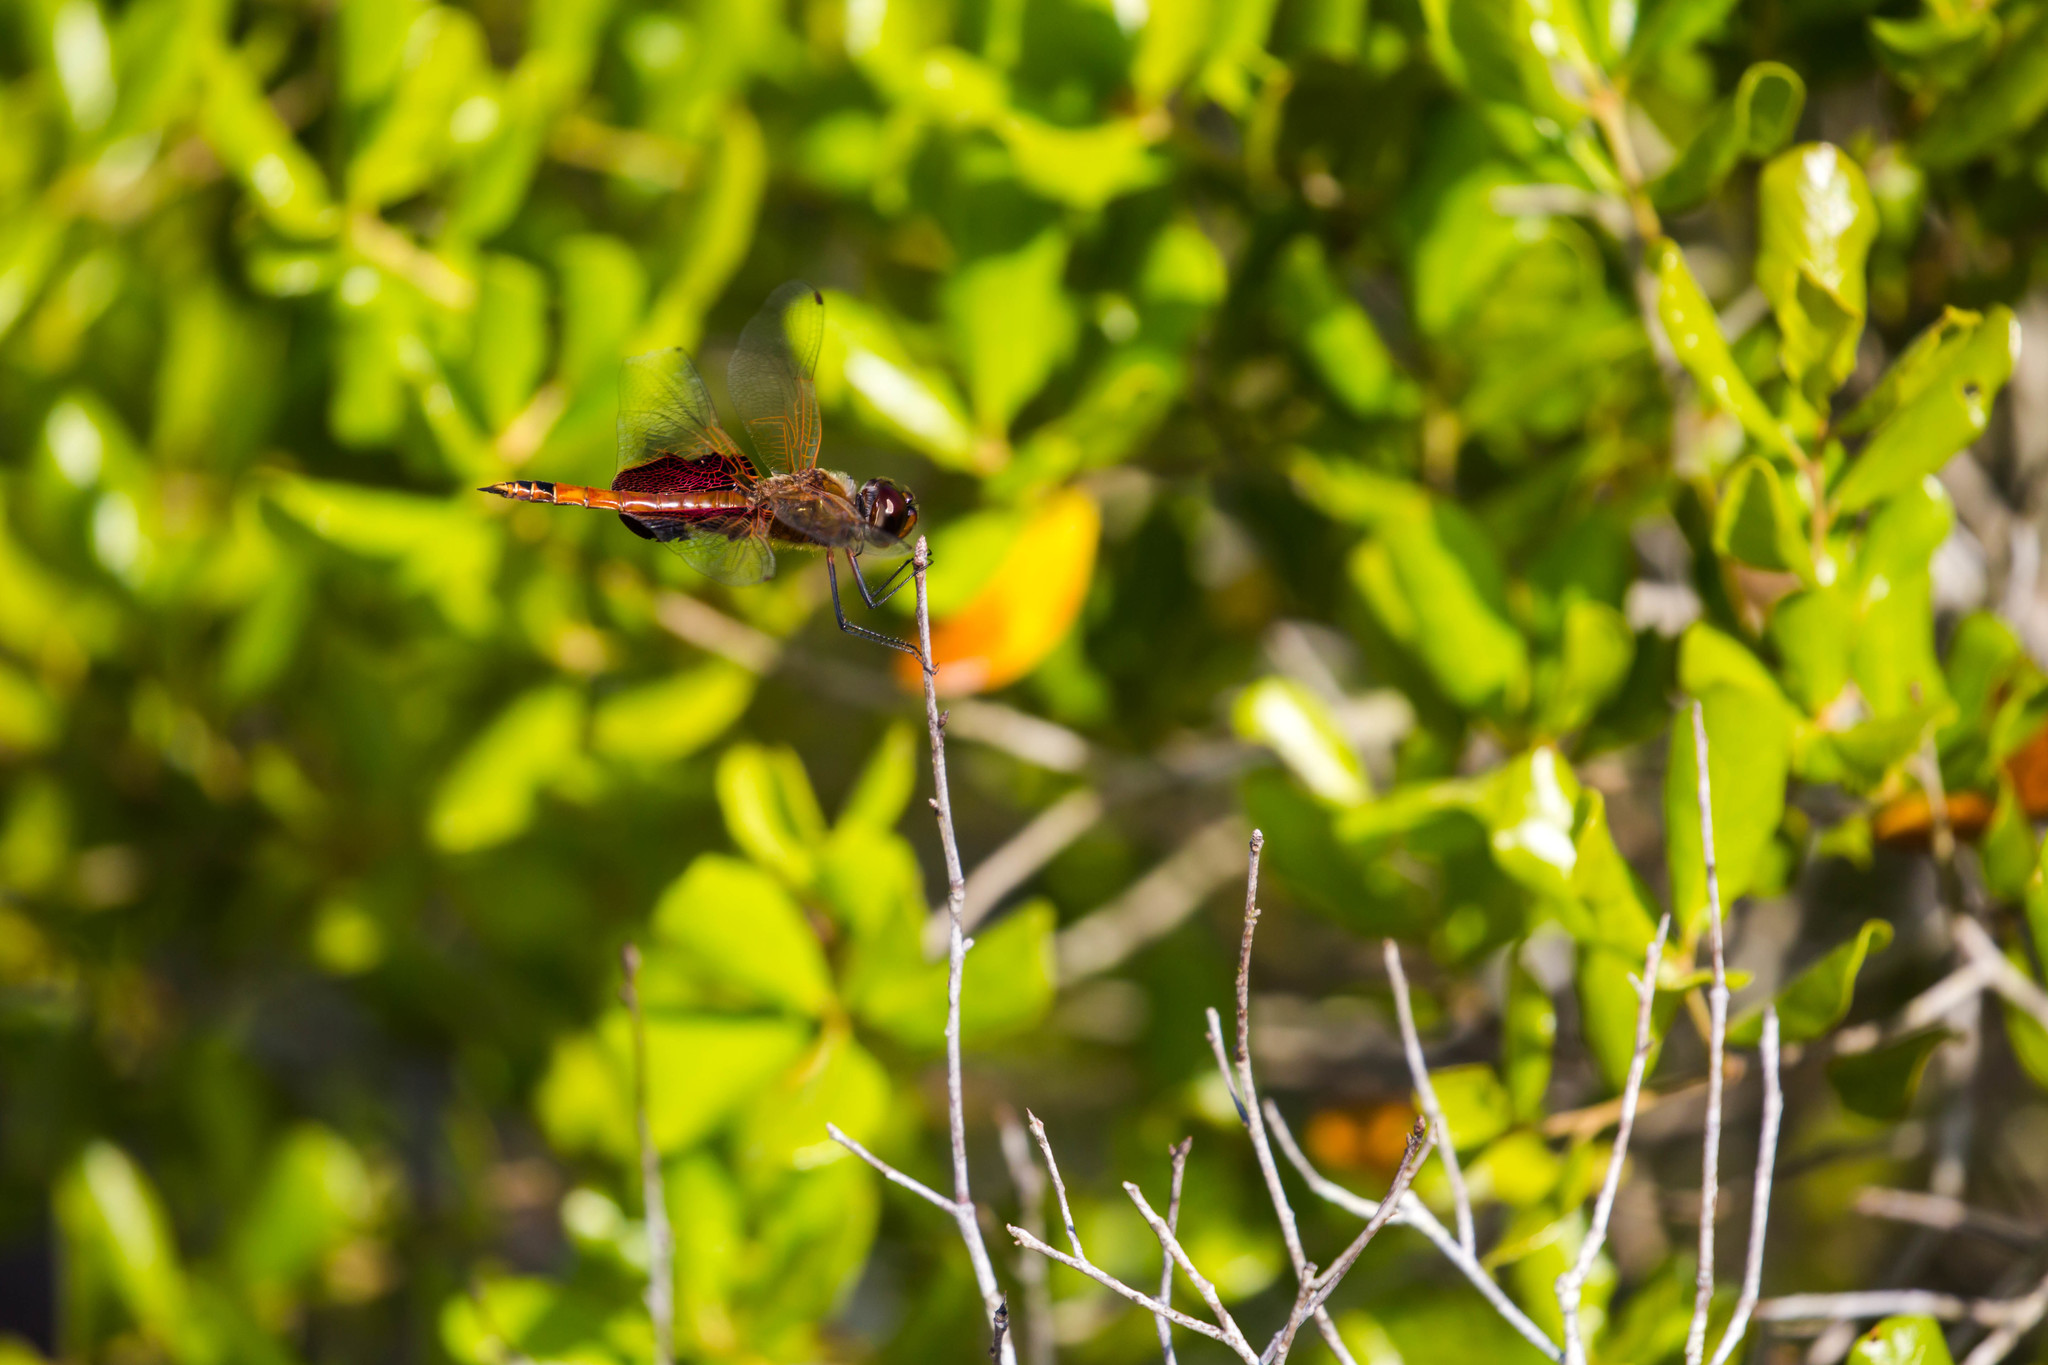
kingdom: Animalia
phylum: Arthropoda
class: Insecta
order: Odonata
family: Libellulidae
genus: Tramea
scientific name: Tramea carolina
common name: Carolina saddlebags
